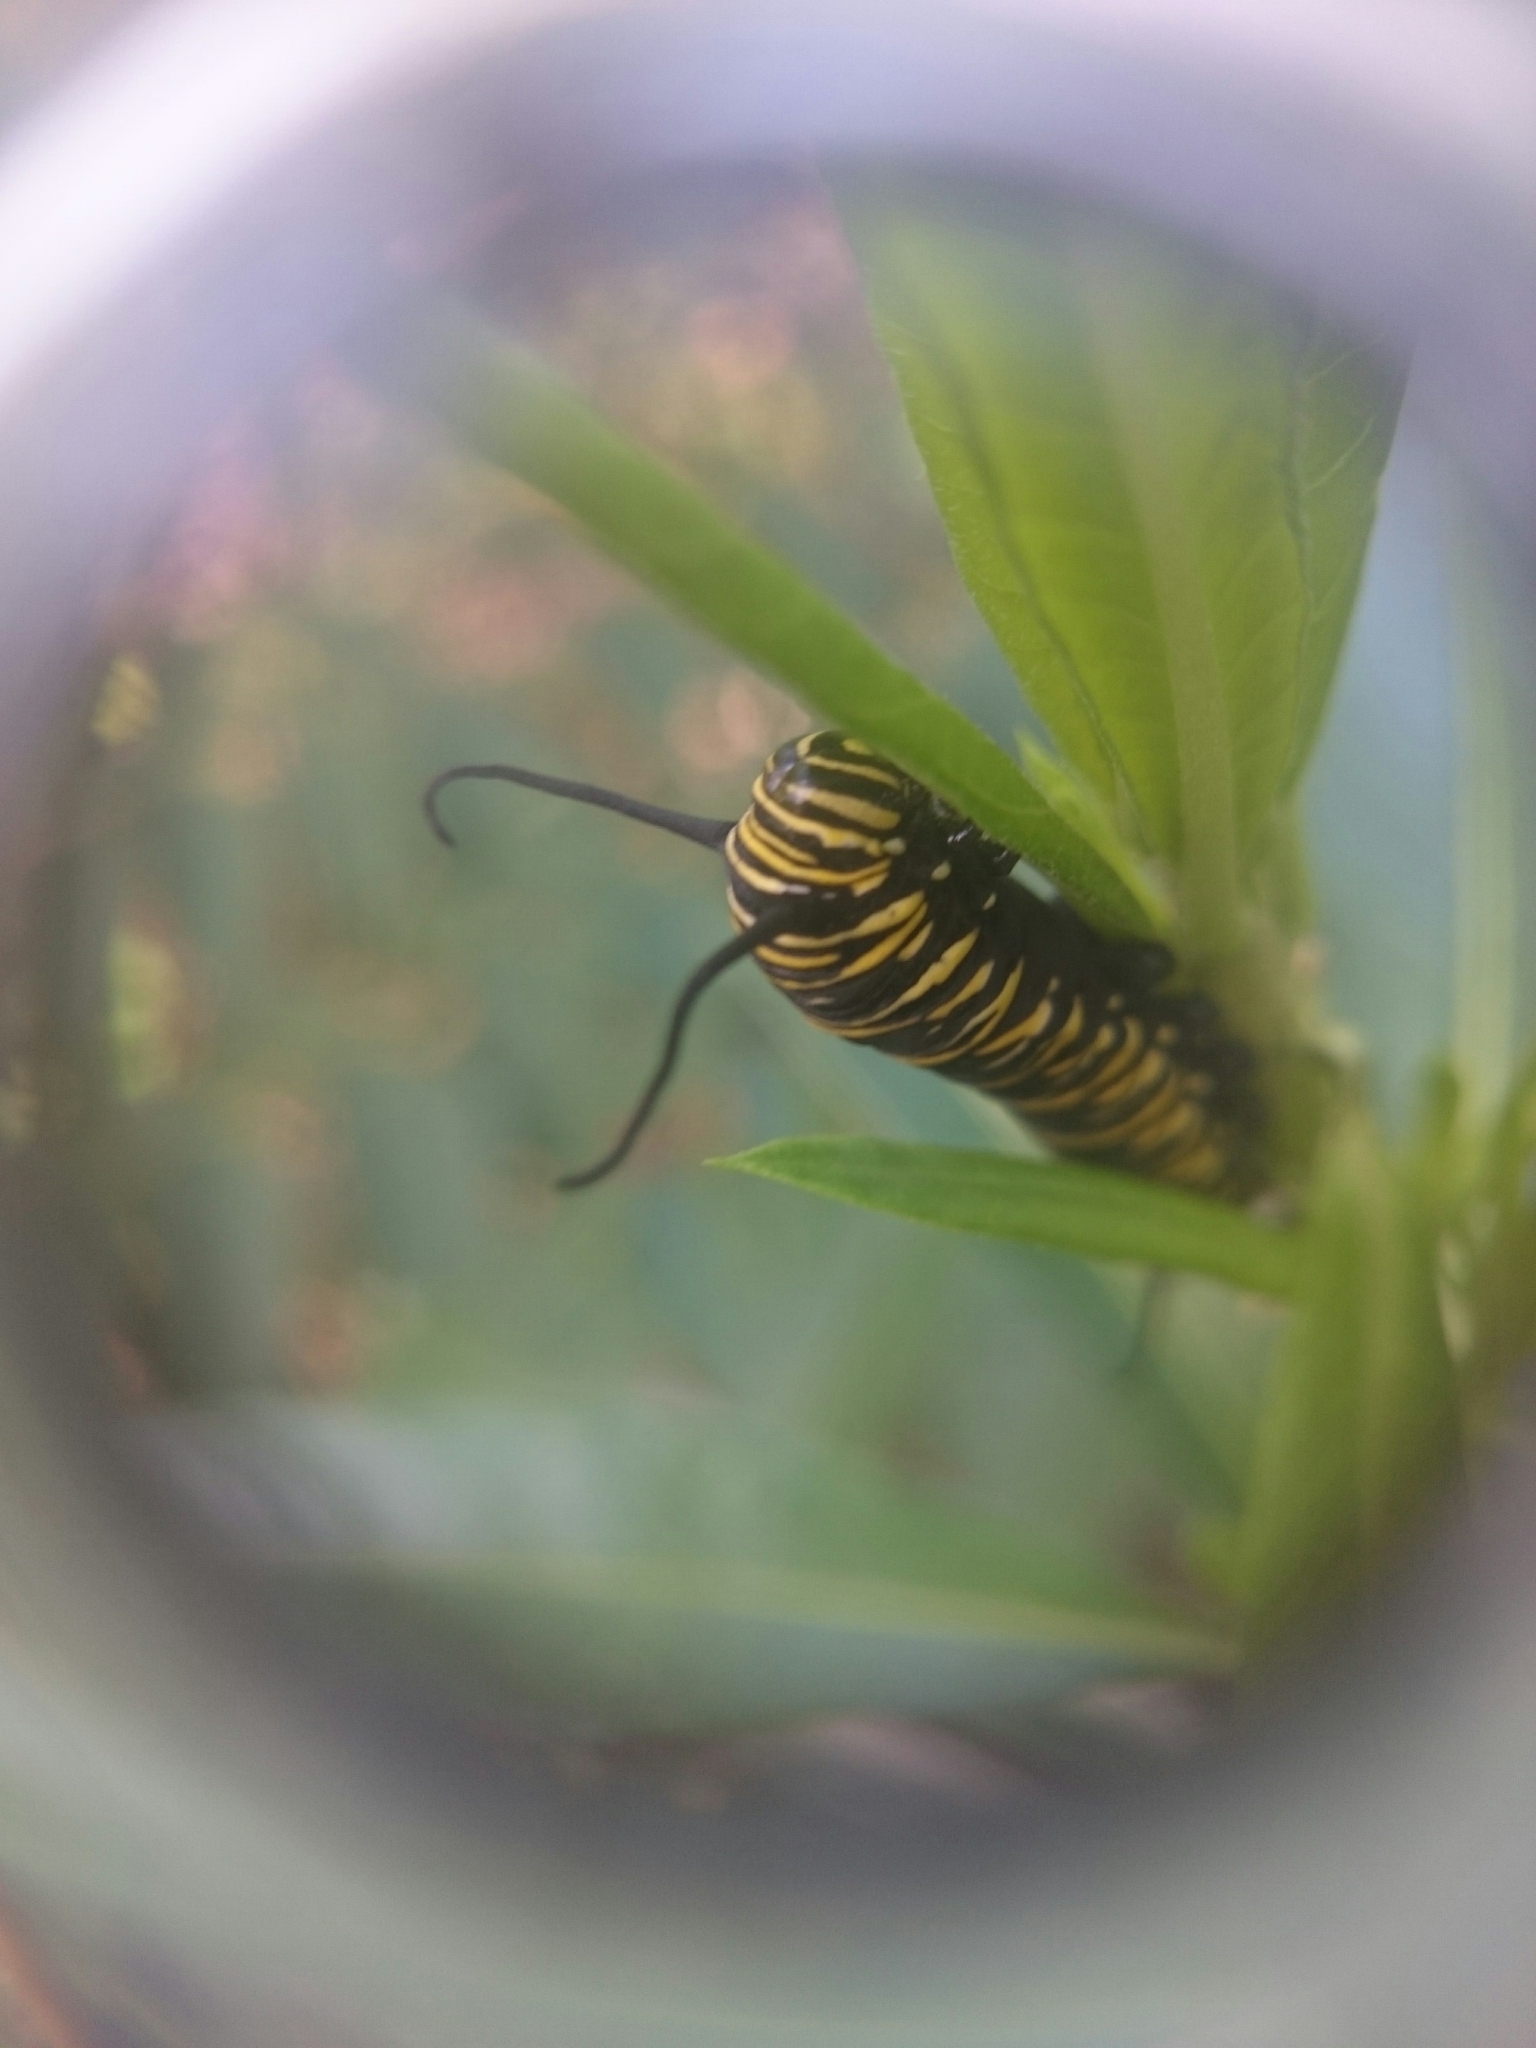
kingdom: Animalia
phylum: Arthropoda
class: Insecta
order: Lepidoptera
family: Nymphalidae
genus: Danaus
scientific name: Danaus plexippus
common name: Monarch
